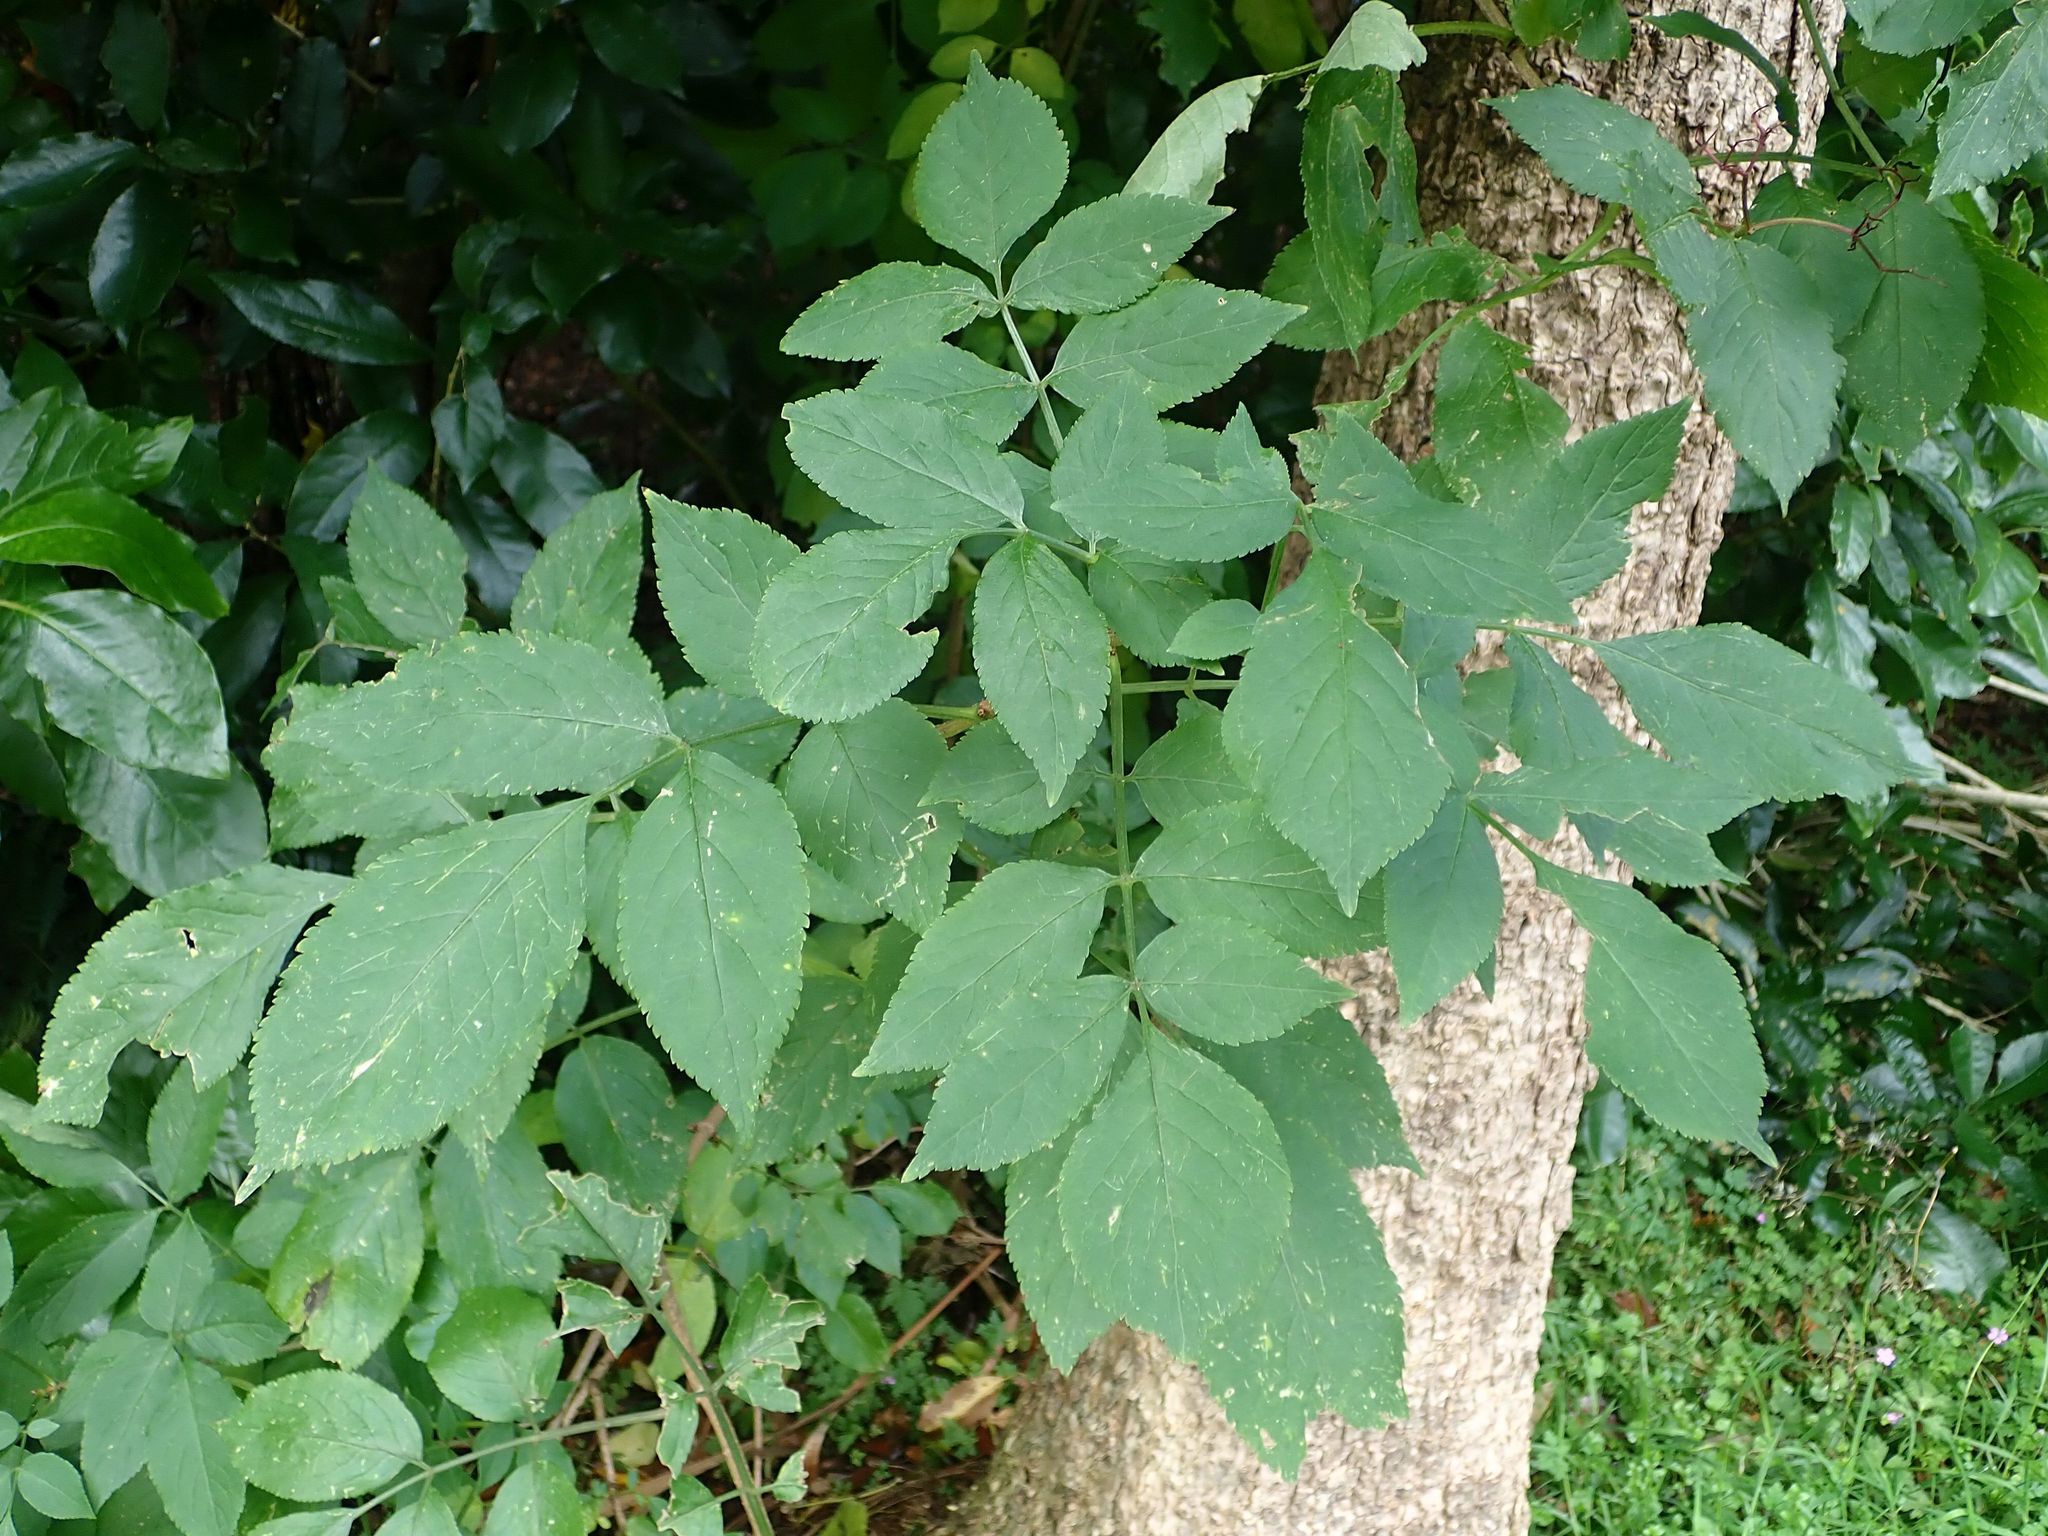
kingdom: Plantae
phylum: Tracheophyta
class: Magnoliopsida
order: Dipsacales
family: Viburnaceae
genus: Sambucus
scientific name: Sambucus nigra
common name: Elder
